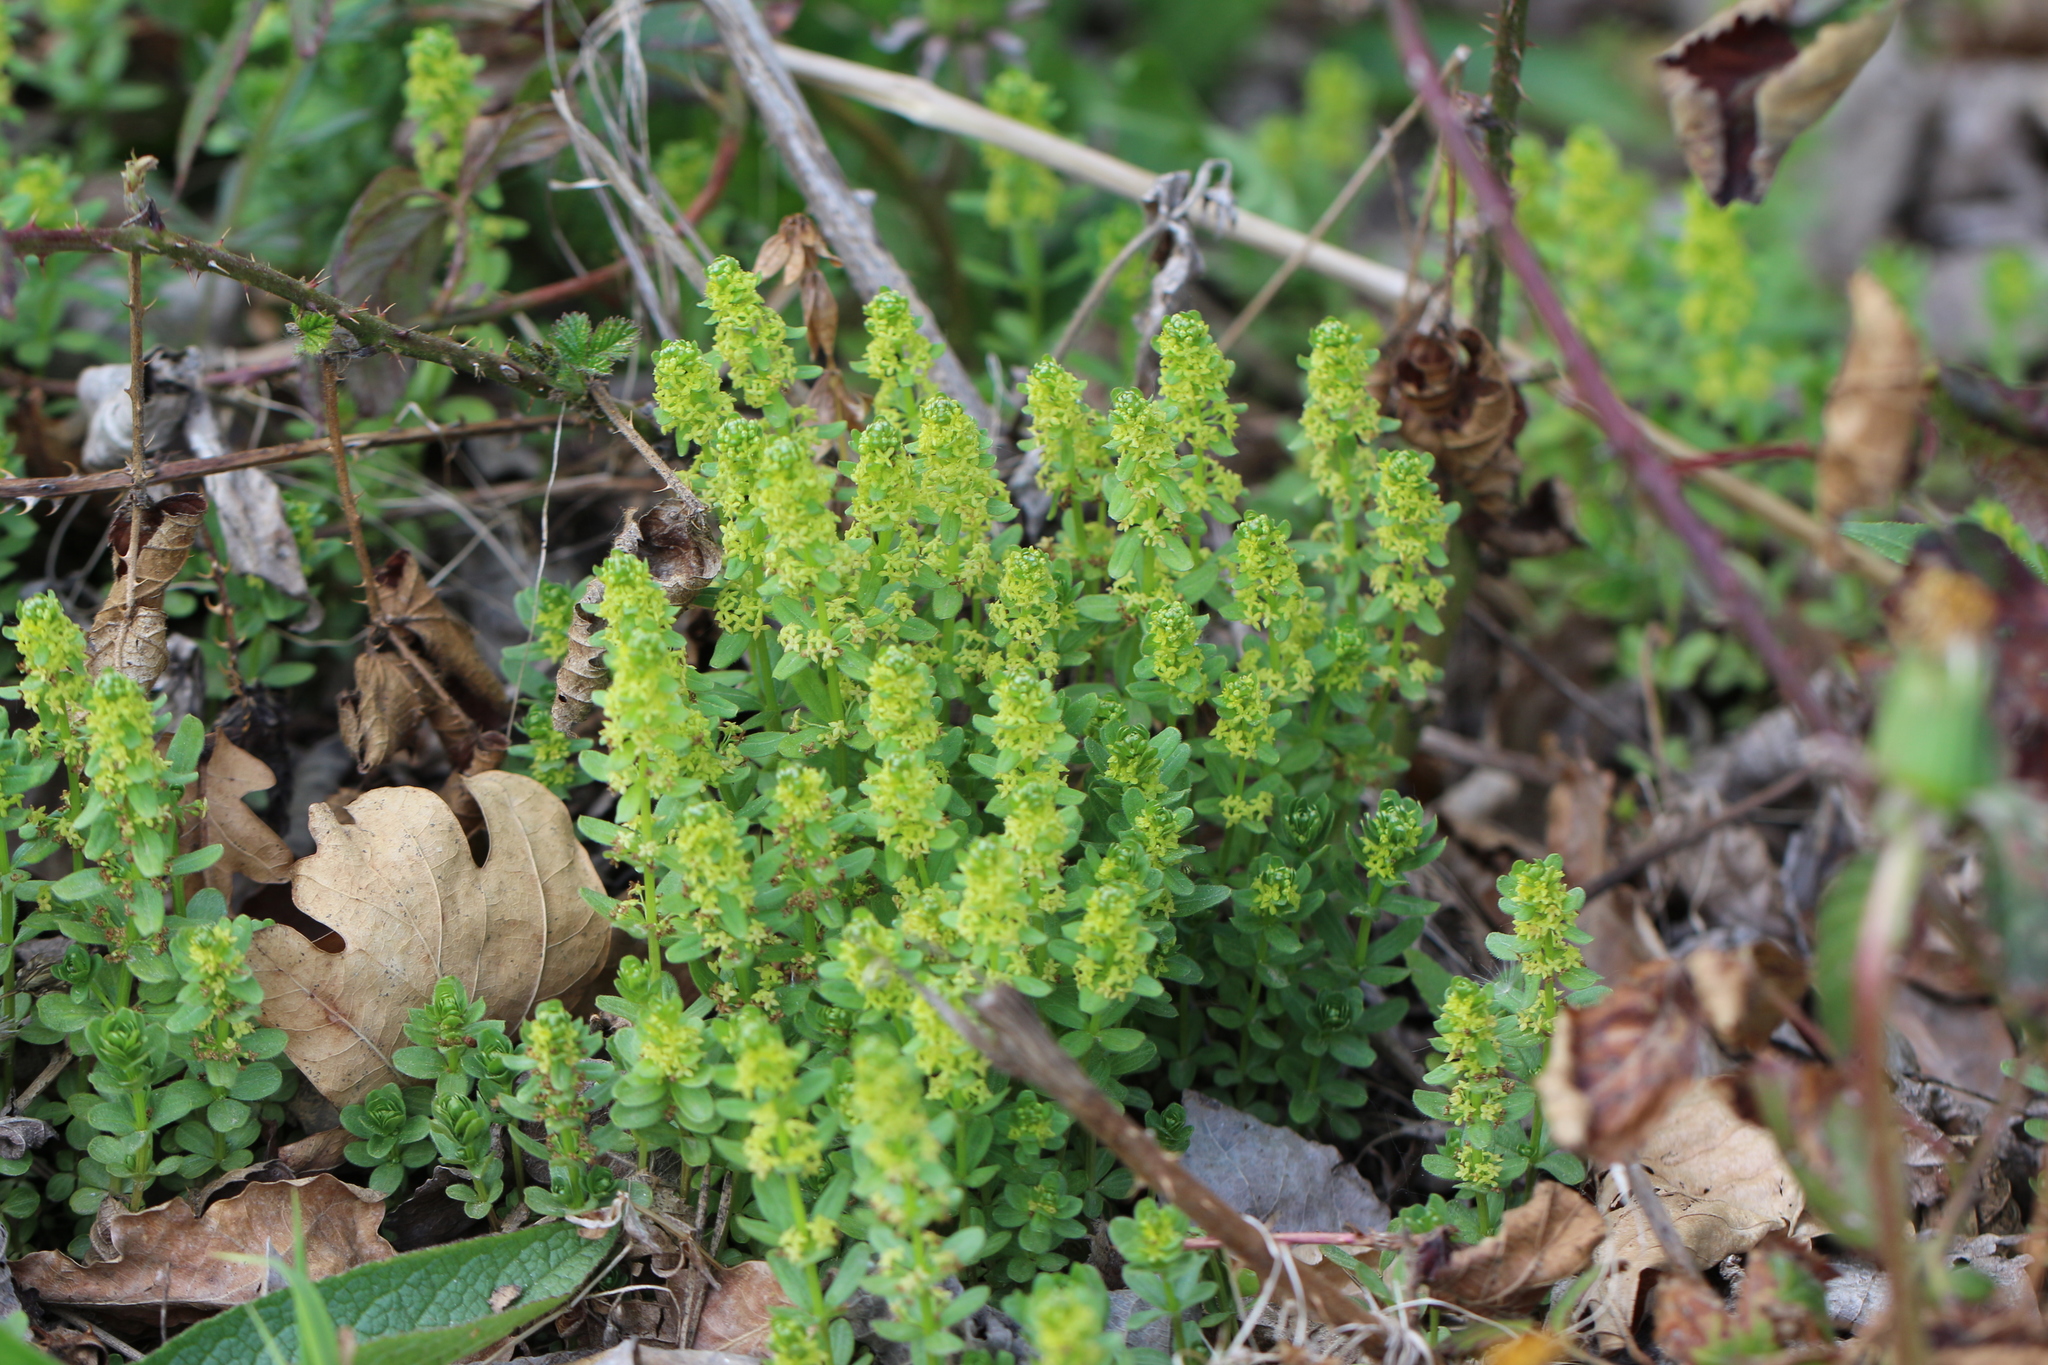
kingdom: Plantae
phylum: Tracheophyta
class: Magnoliopsida
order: Gentianales
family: Rubiaceae
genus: Cruciata
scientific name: Cruciata laevipes
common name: Crosswort
